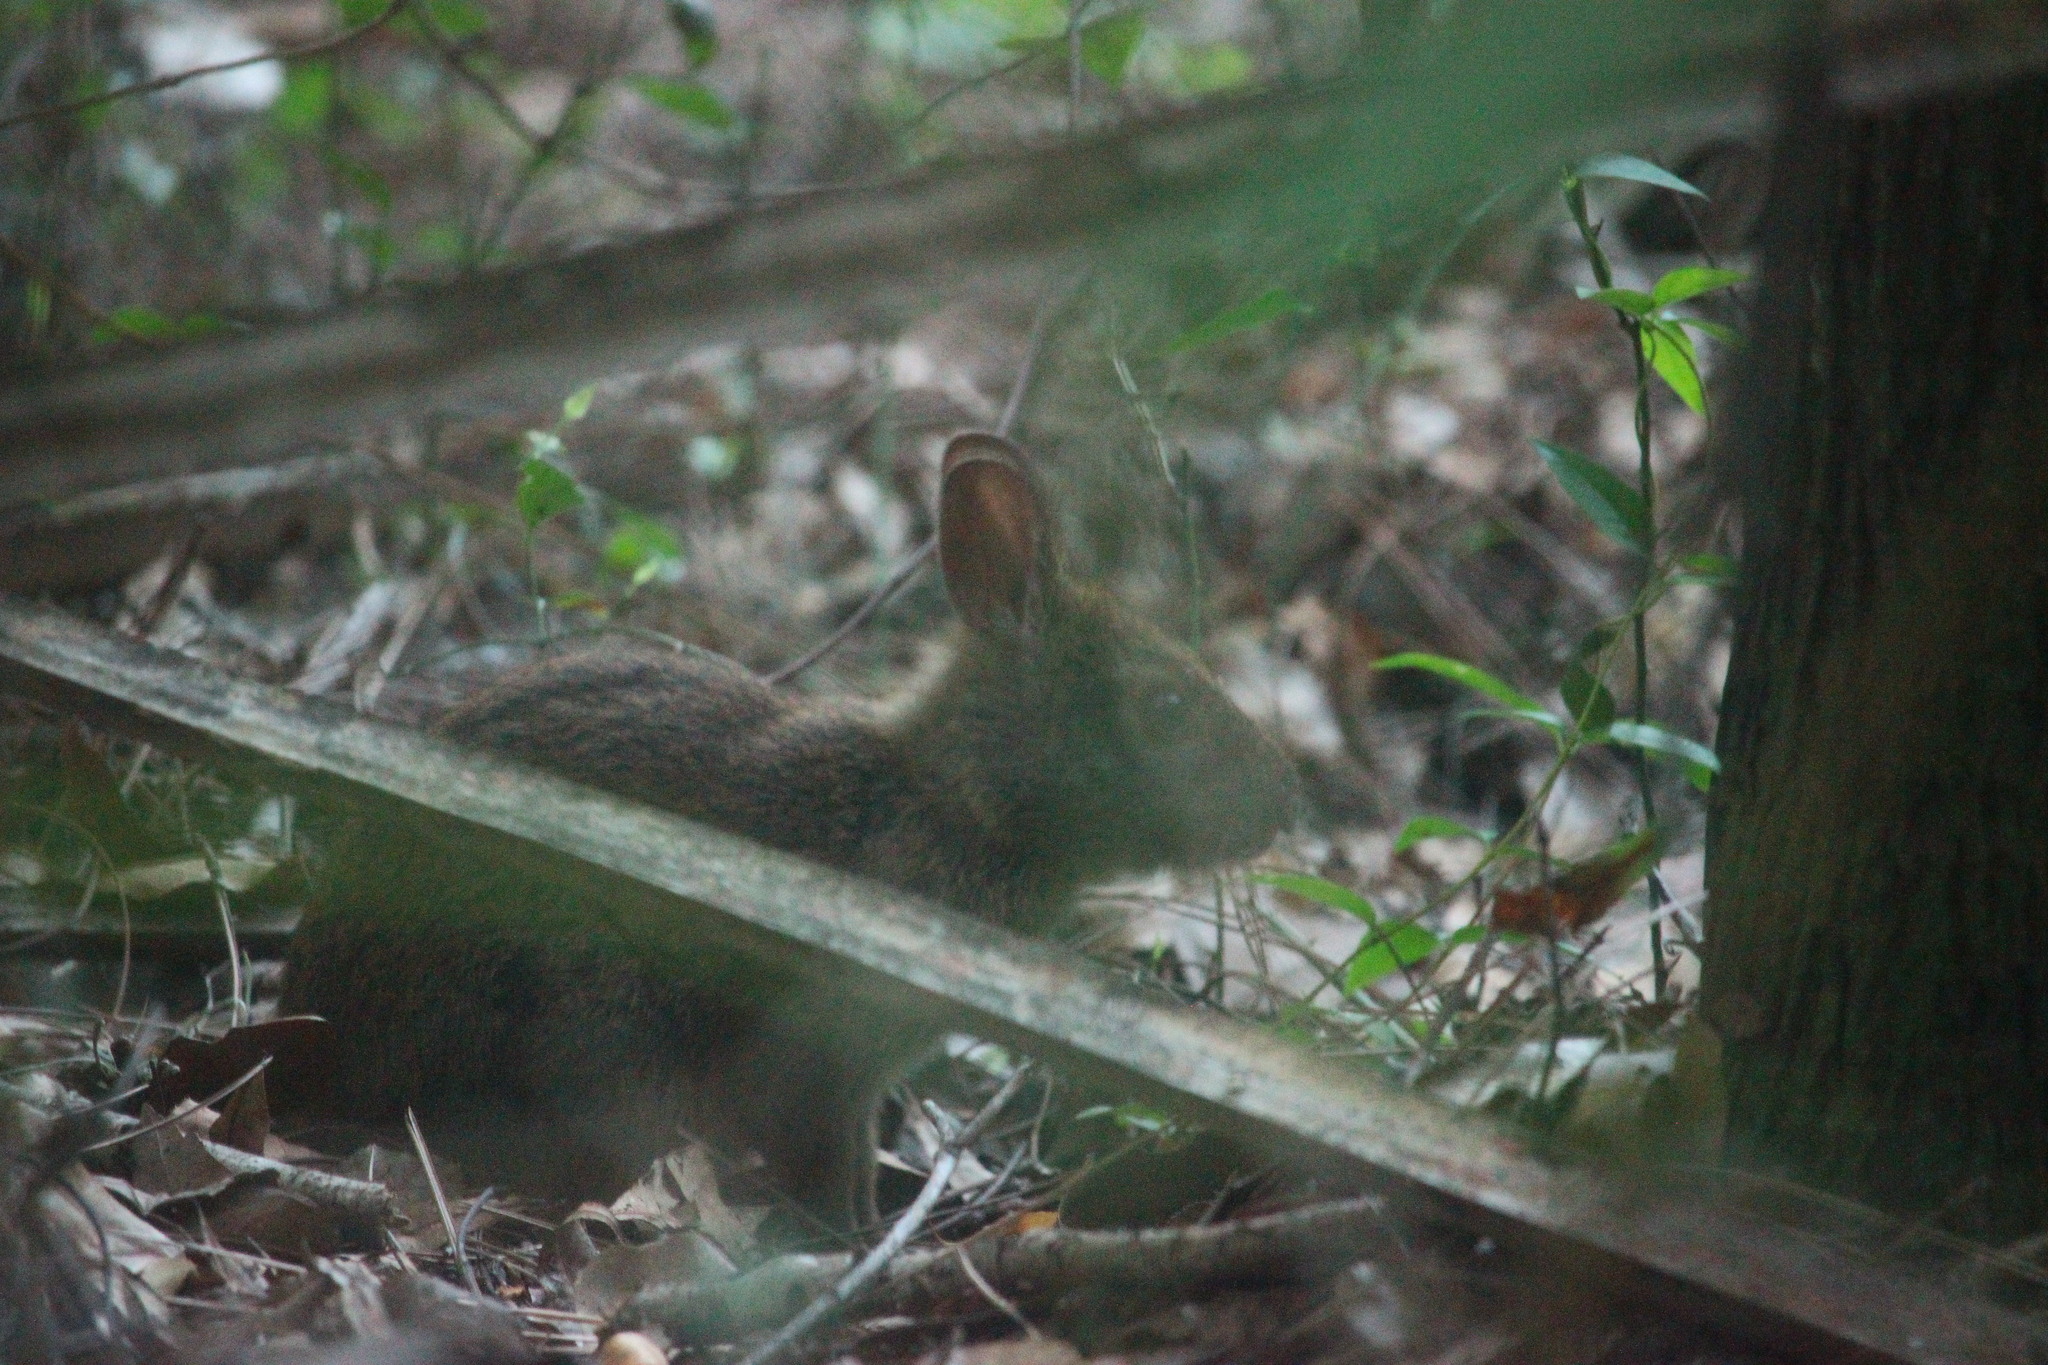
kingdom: Animalia
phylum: Chordata
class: Mammalia
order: Lagomorpha
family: Leporidae
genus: Sylvilagus
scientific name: Sylvilagus palustris
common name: Marsh rabbit
